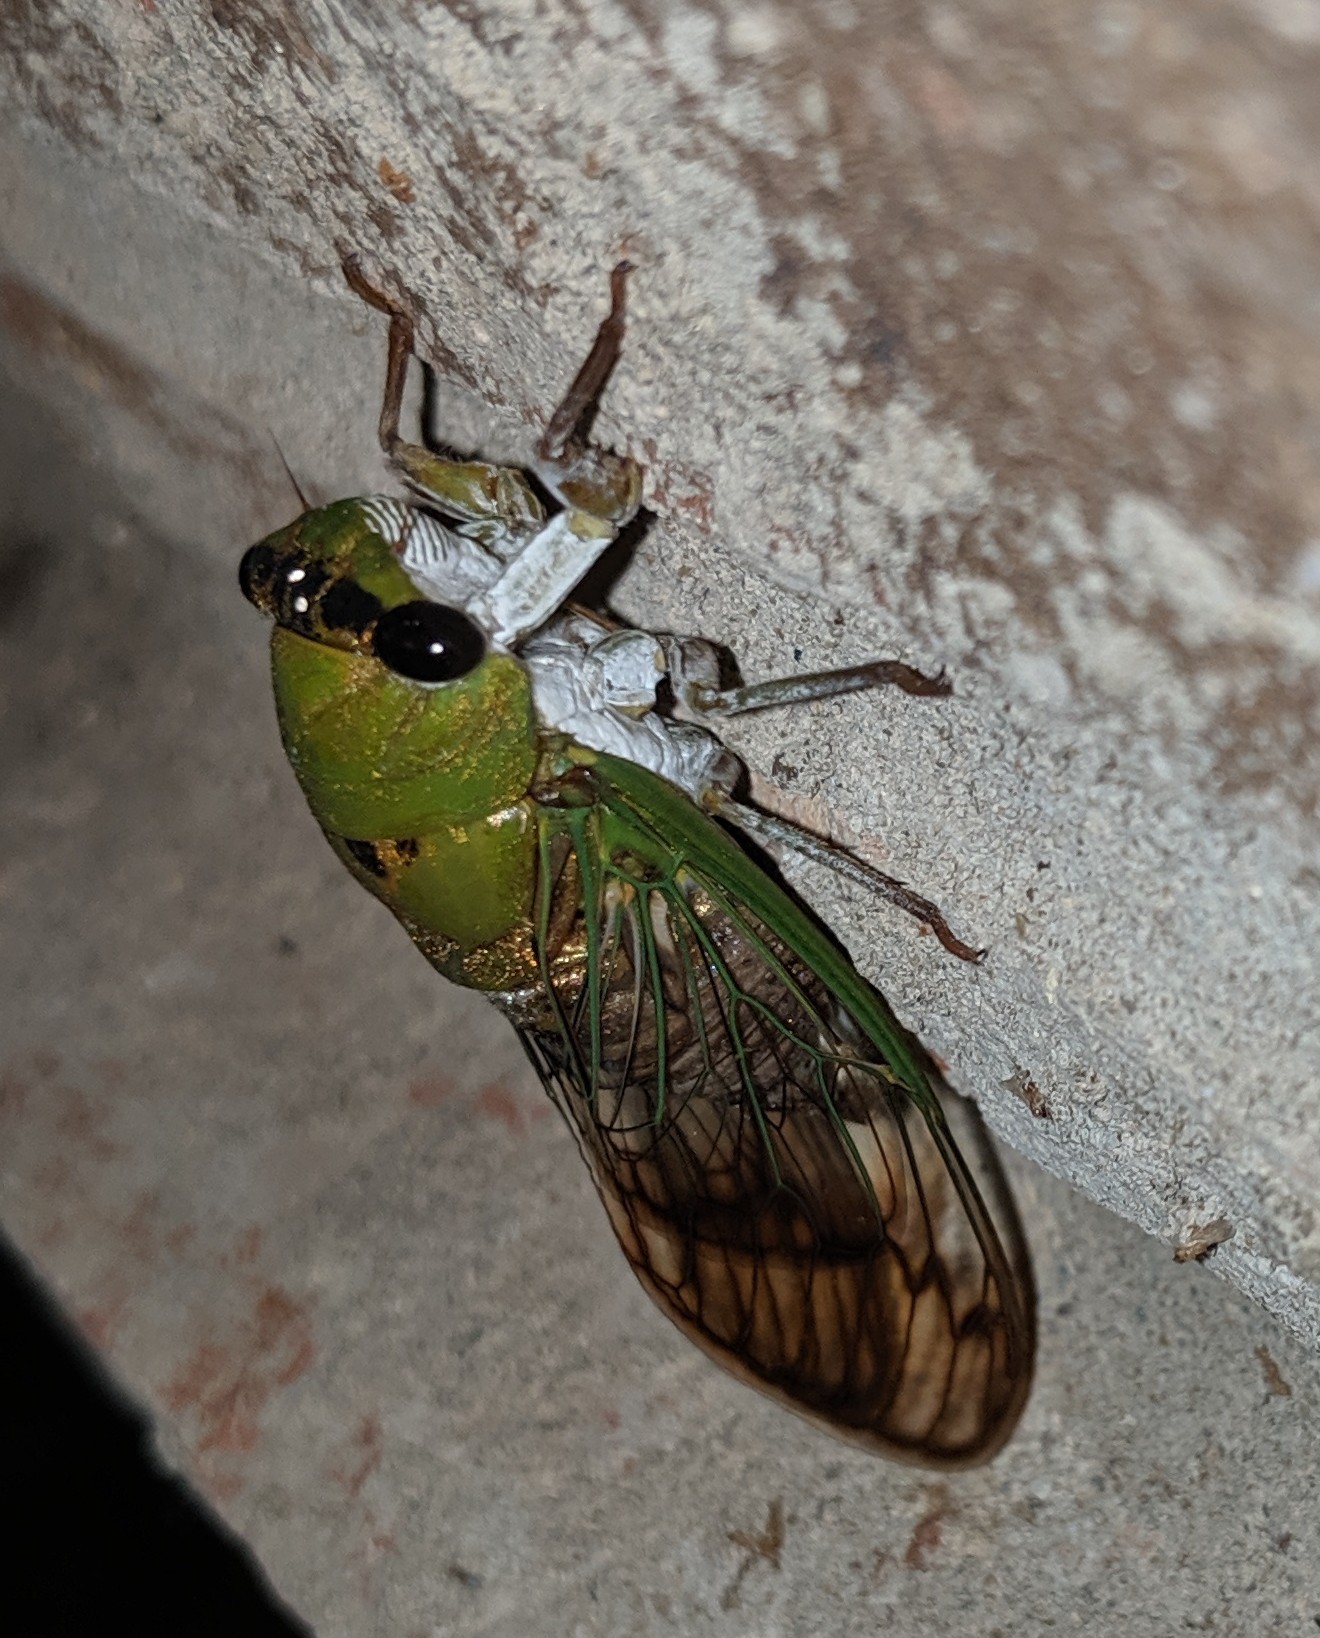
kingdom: Animalia
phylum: Arthropoda
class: Insecta
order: Hemiptera
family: Cicadidae
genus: Neotibicen
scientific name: Neotibicen superbus
